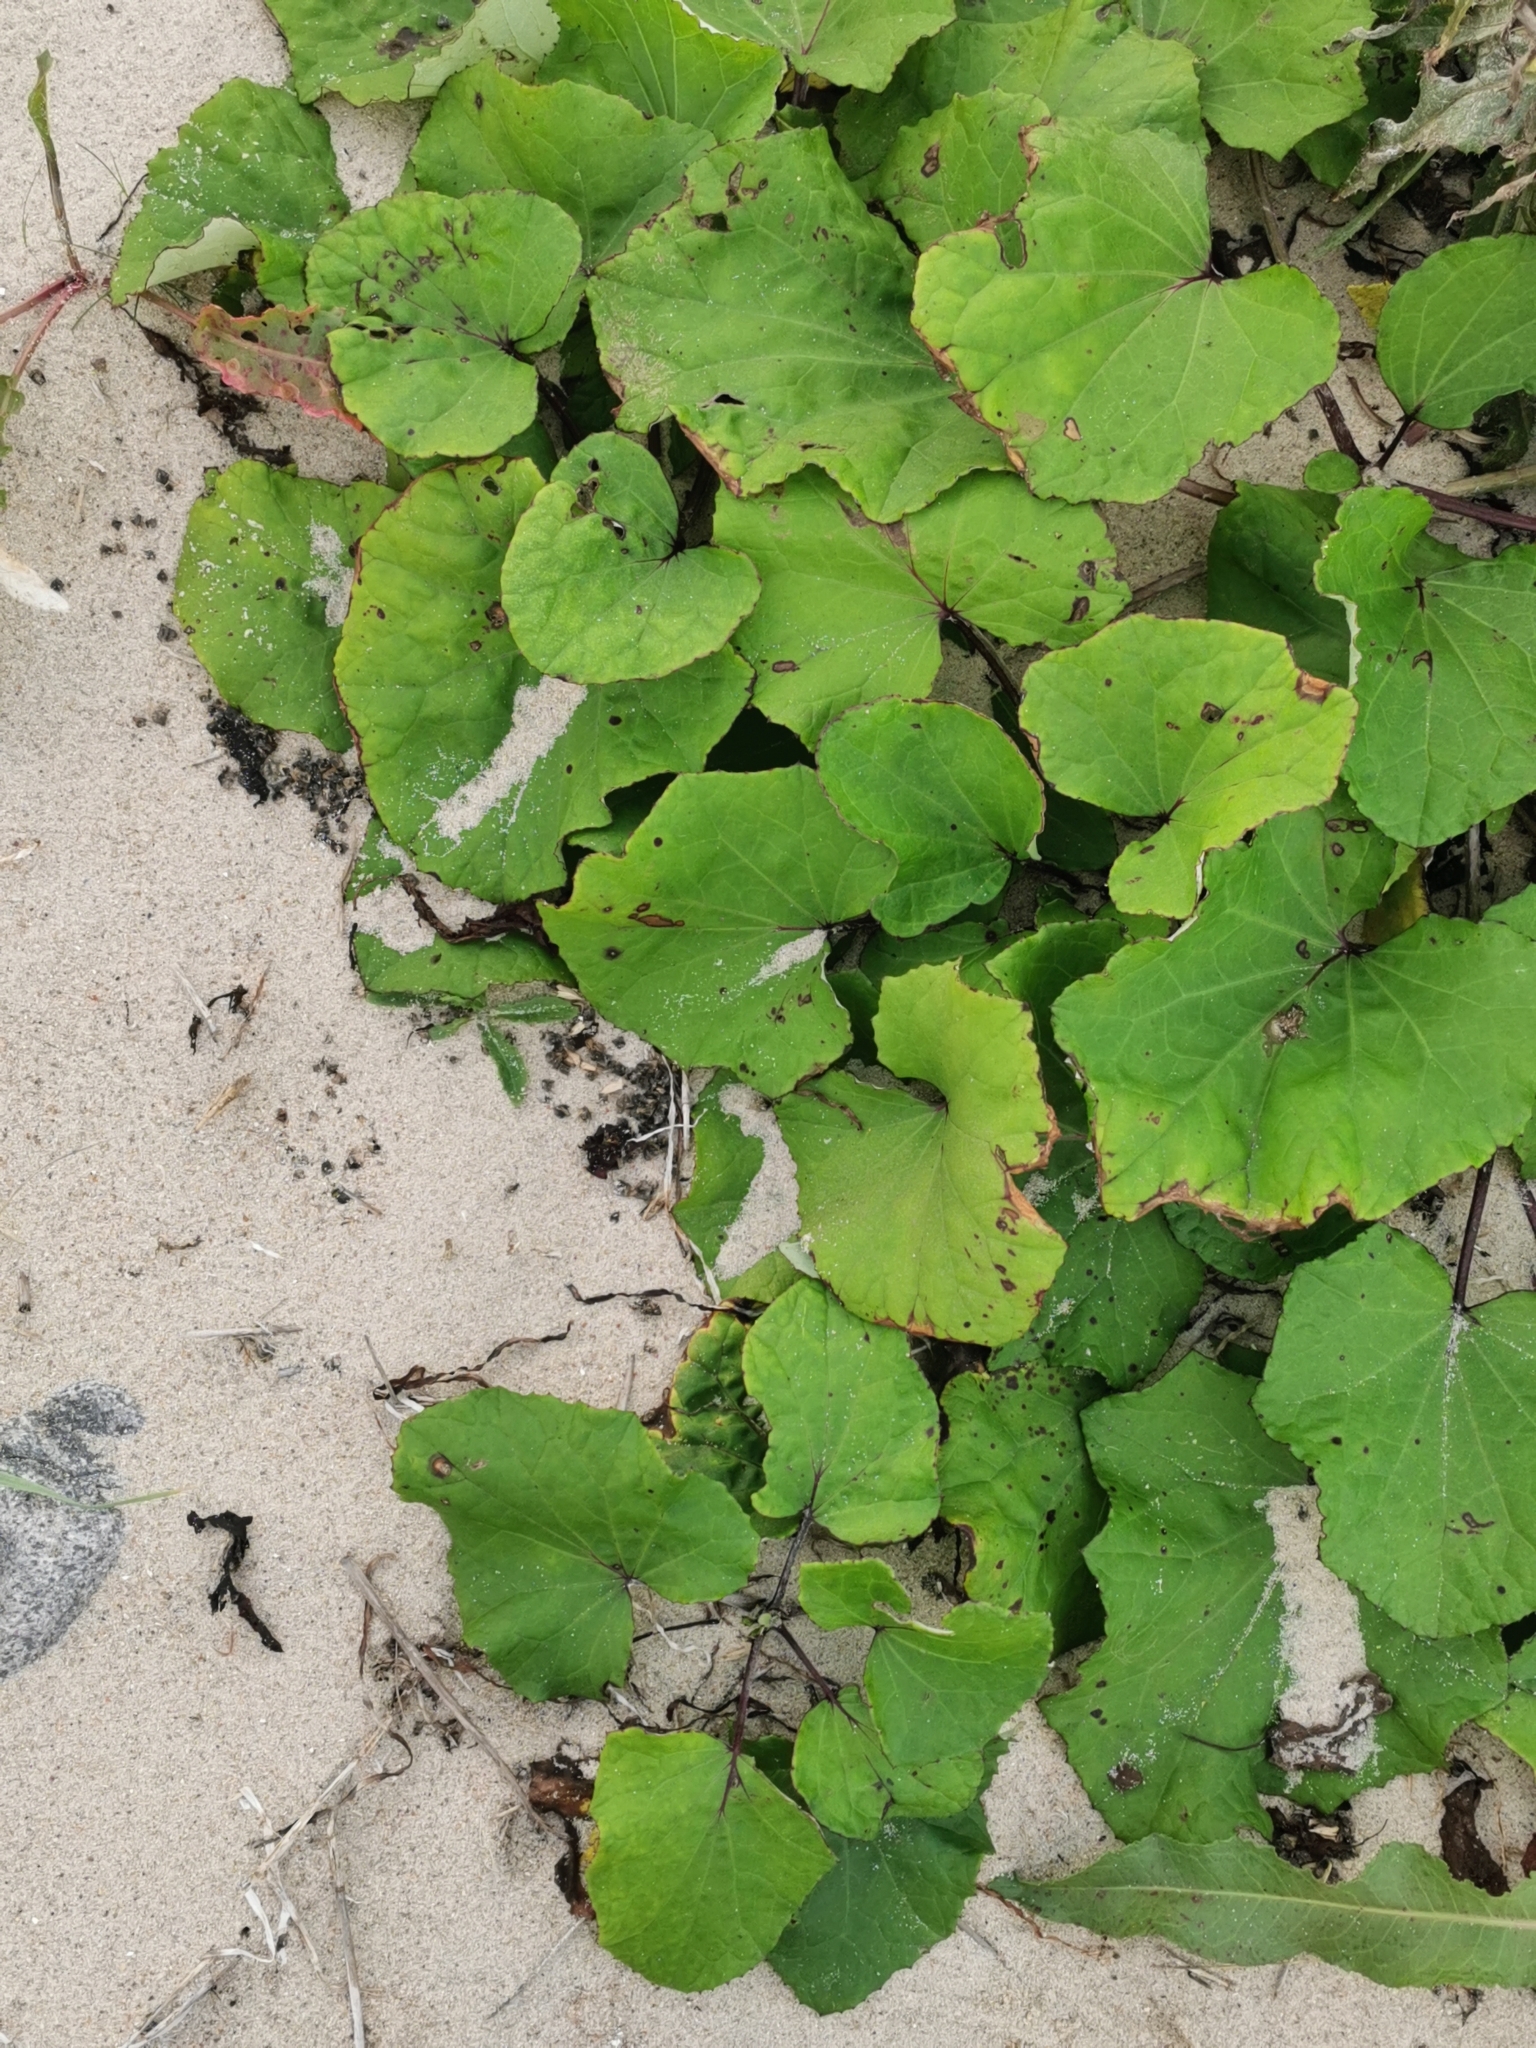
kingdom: Plantae
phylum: Tracheophyta
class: Magnoliopsida
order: Asterales
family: Asteraceae
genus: Tussilago
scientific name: Tussilago farfara
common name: Coltsfoot
